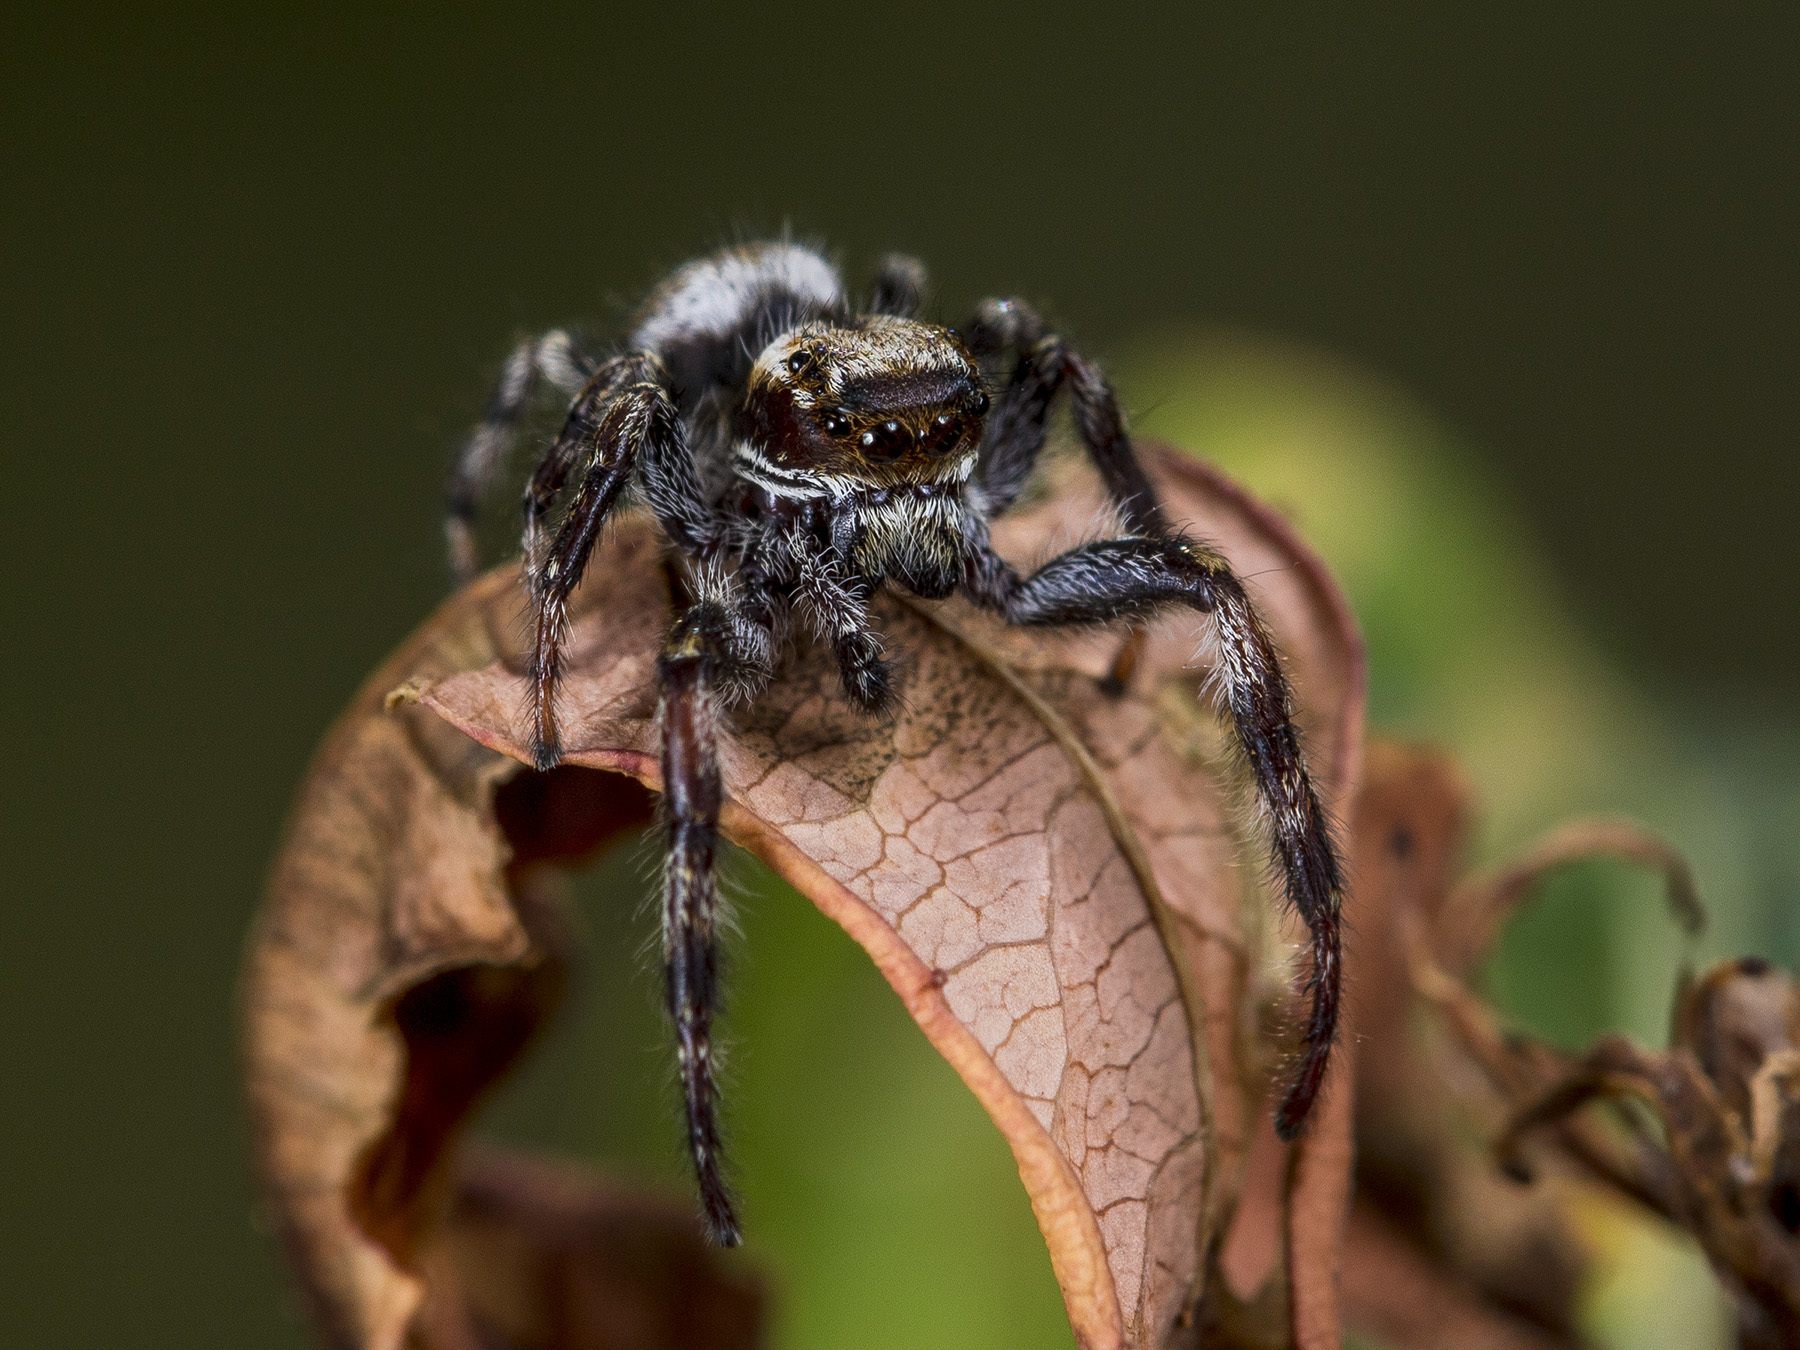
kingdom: Animalia
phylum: Arthropoda
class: Arachnida
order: Araneae
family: Salticidae
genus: Dendryphantes
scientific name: Dendryphantes secretus
